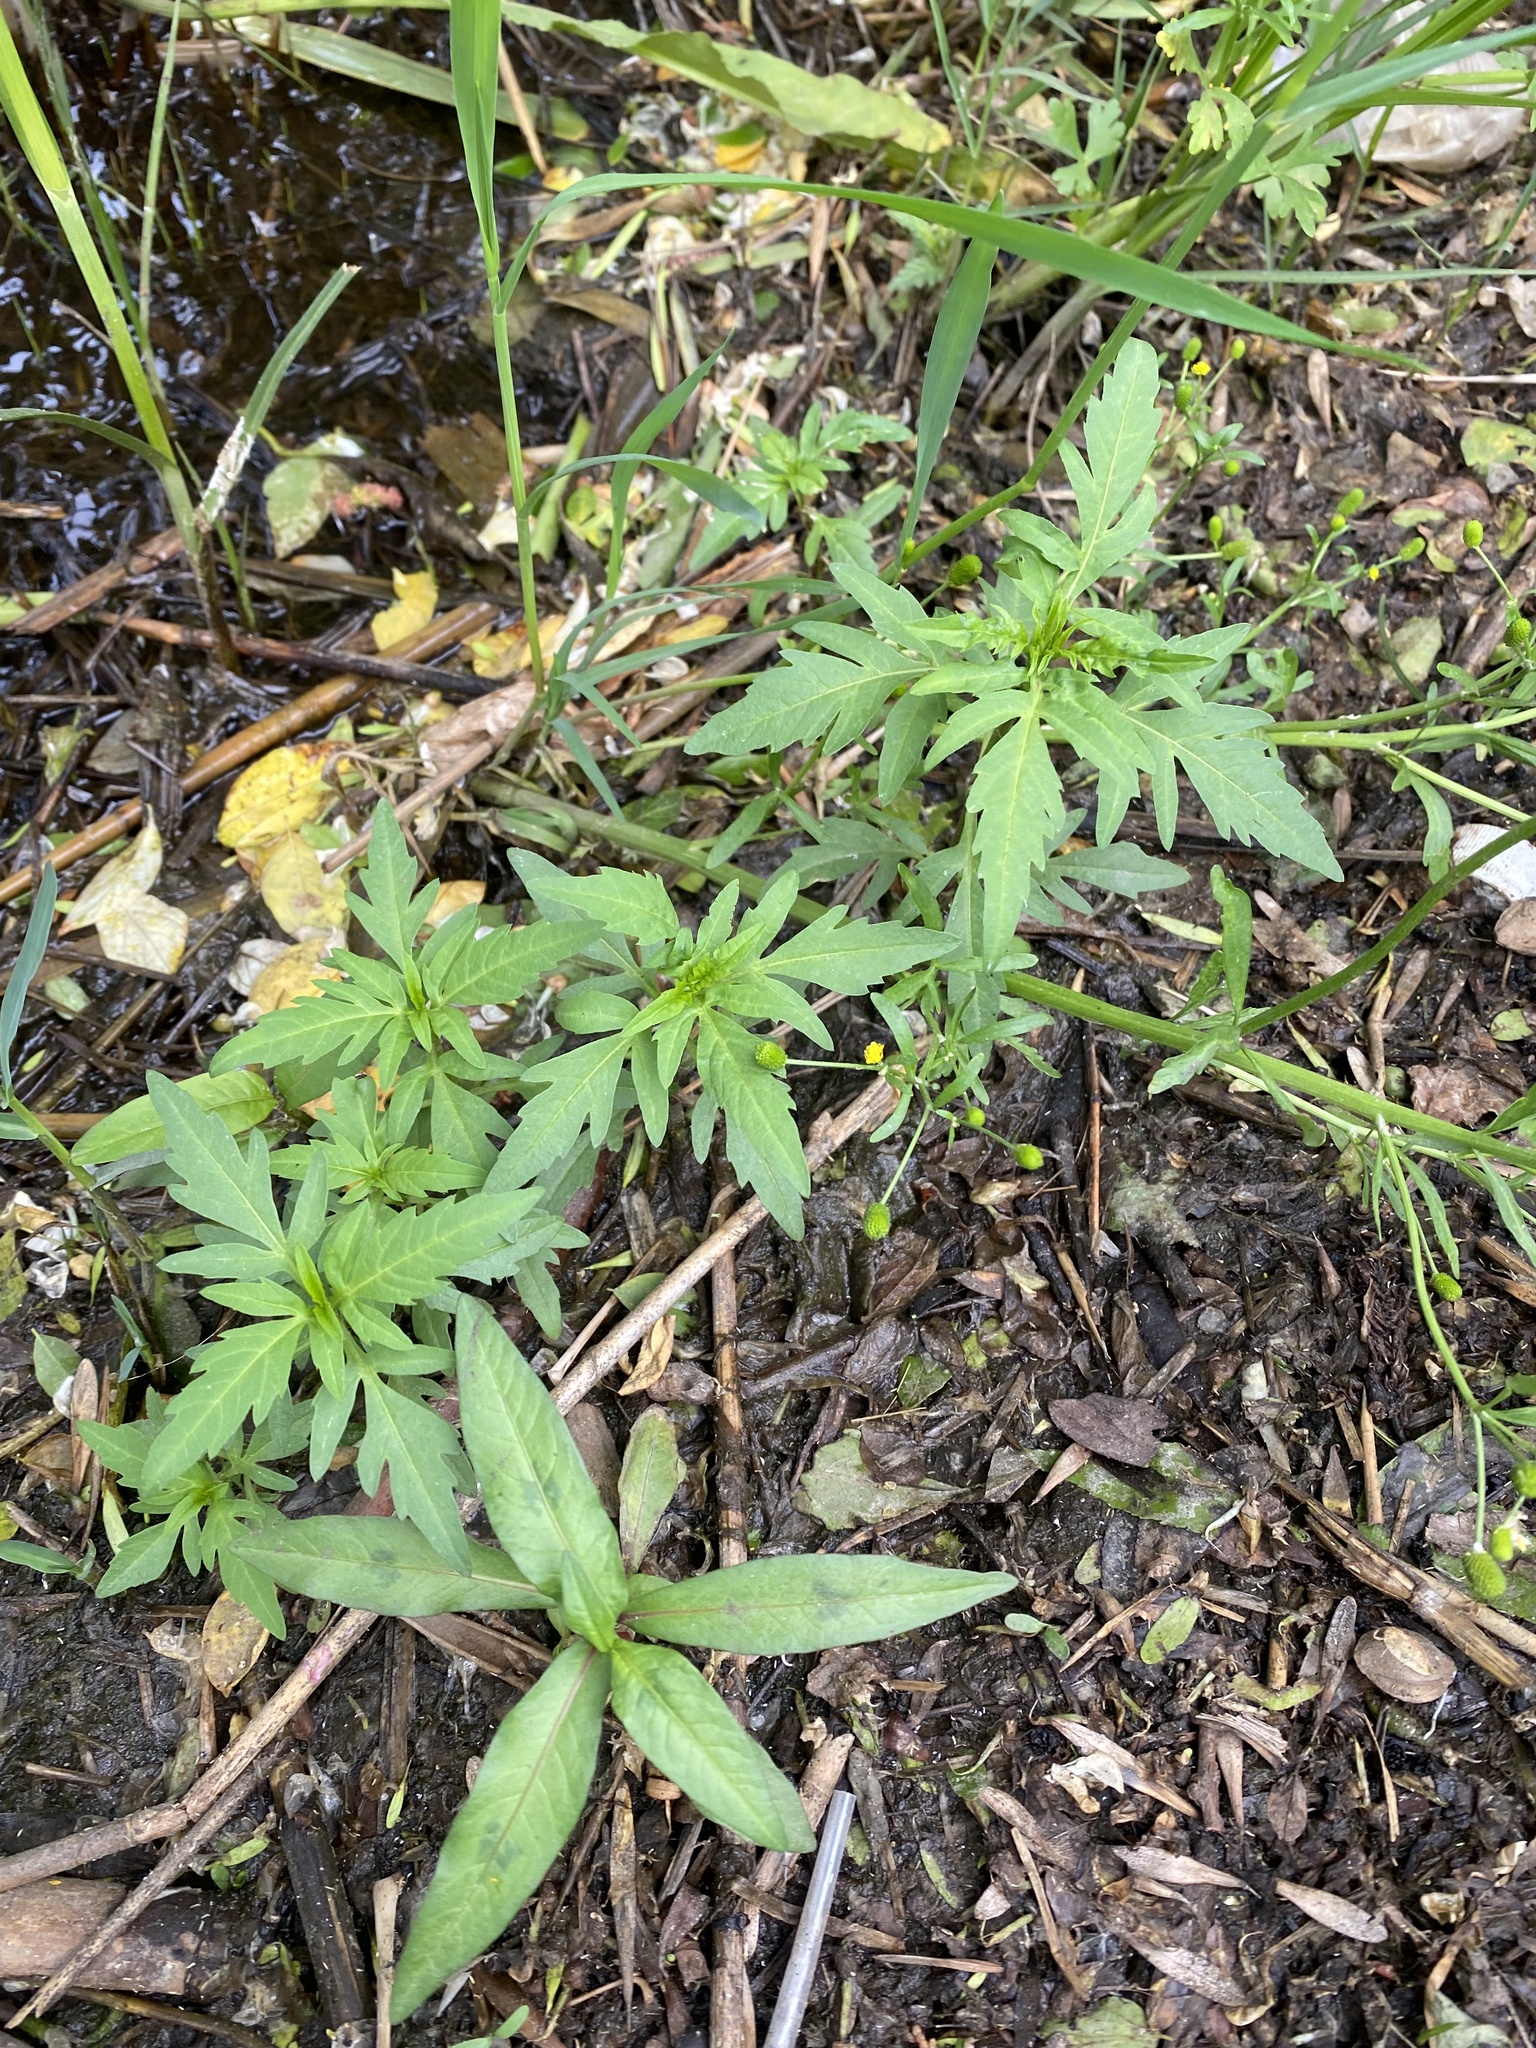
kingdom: Plantae
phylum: Tracheophyta
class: Magnoliopsida
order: Asterales
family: Asteraceae
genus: Bidens
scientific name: Bidens tripartita
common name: Trifid bur-marigold
